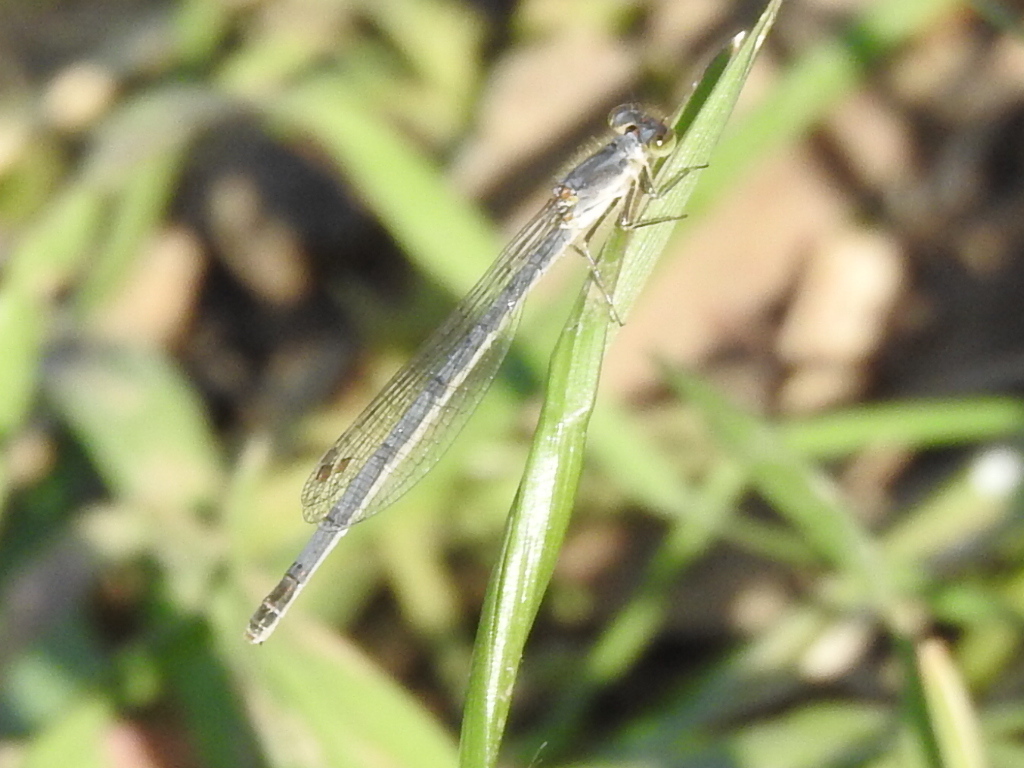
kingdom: Animalia
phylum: Arthropoda
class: Insecta
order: Odonata
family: Coenagrionidae
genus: Ischnura
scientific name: Ischnura posita
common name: Fragile forktail
